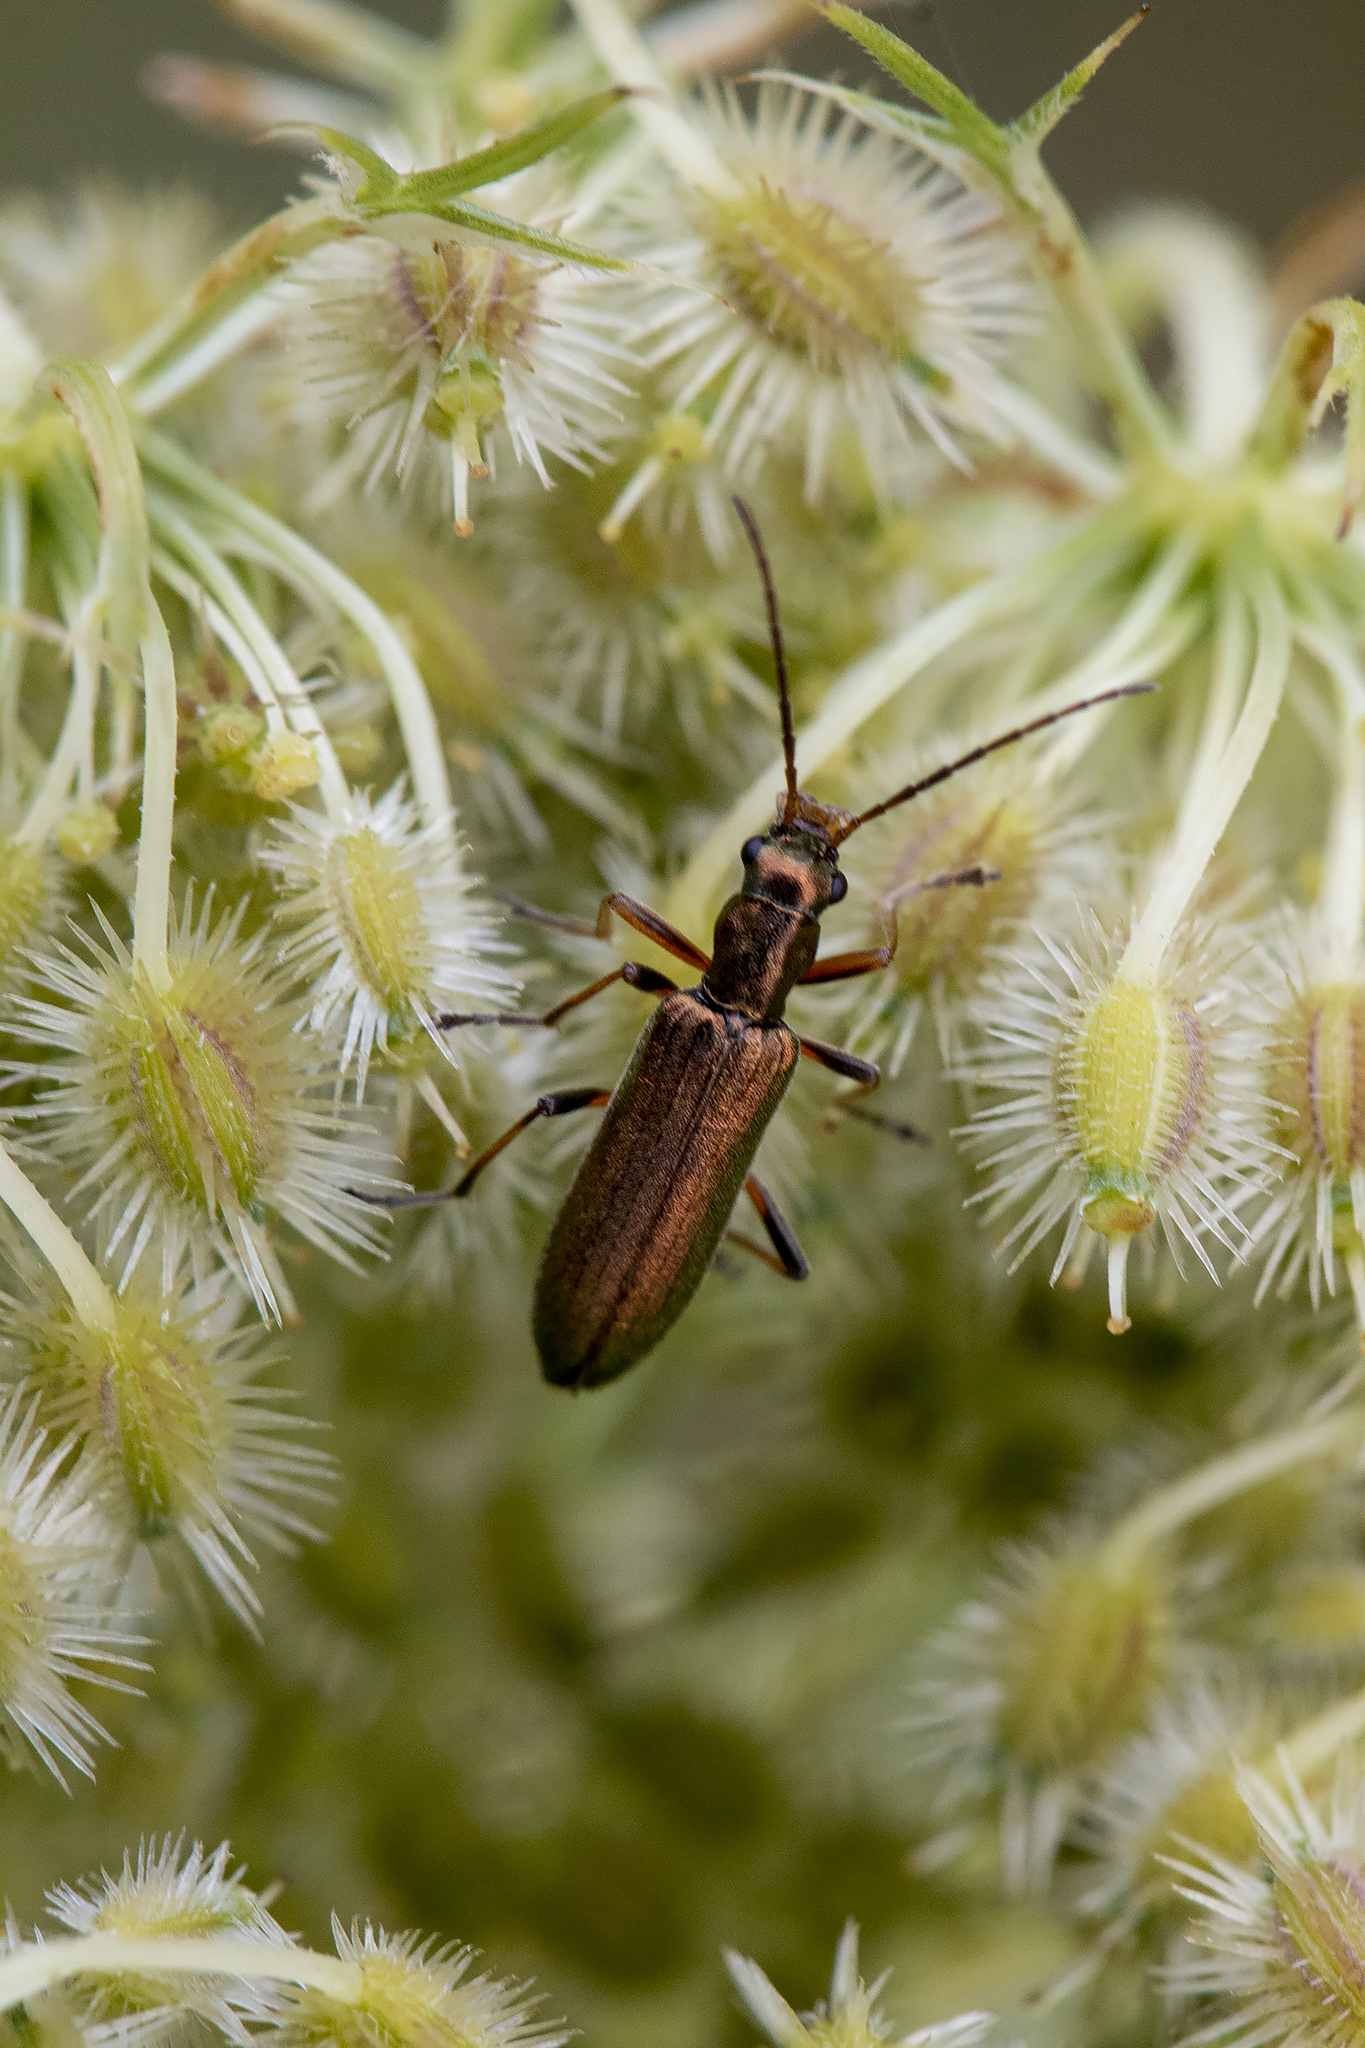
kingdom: Animalia
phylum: Arthropoda
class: Insecta
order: Coleoptera
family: Oedemeridae
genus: Chrysanthia
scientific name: Chrysanthia geniculata
